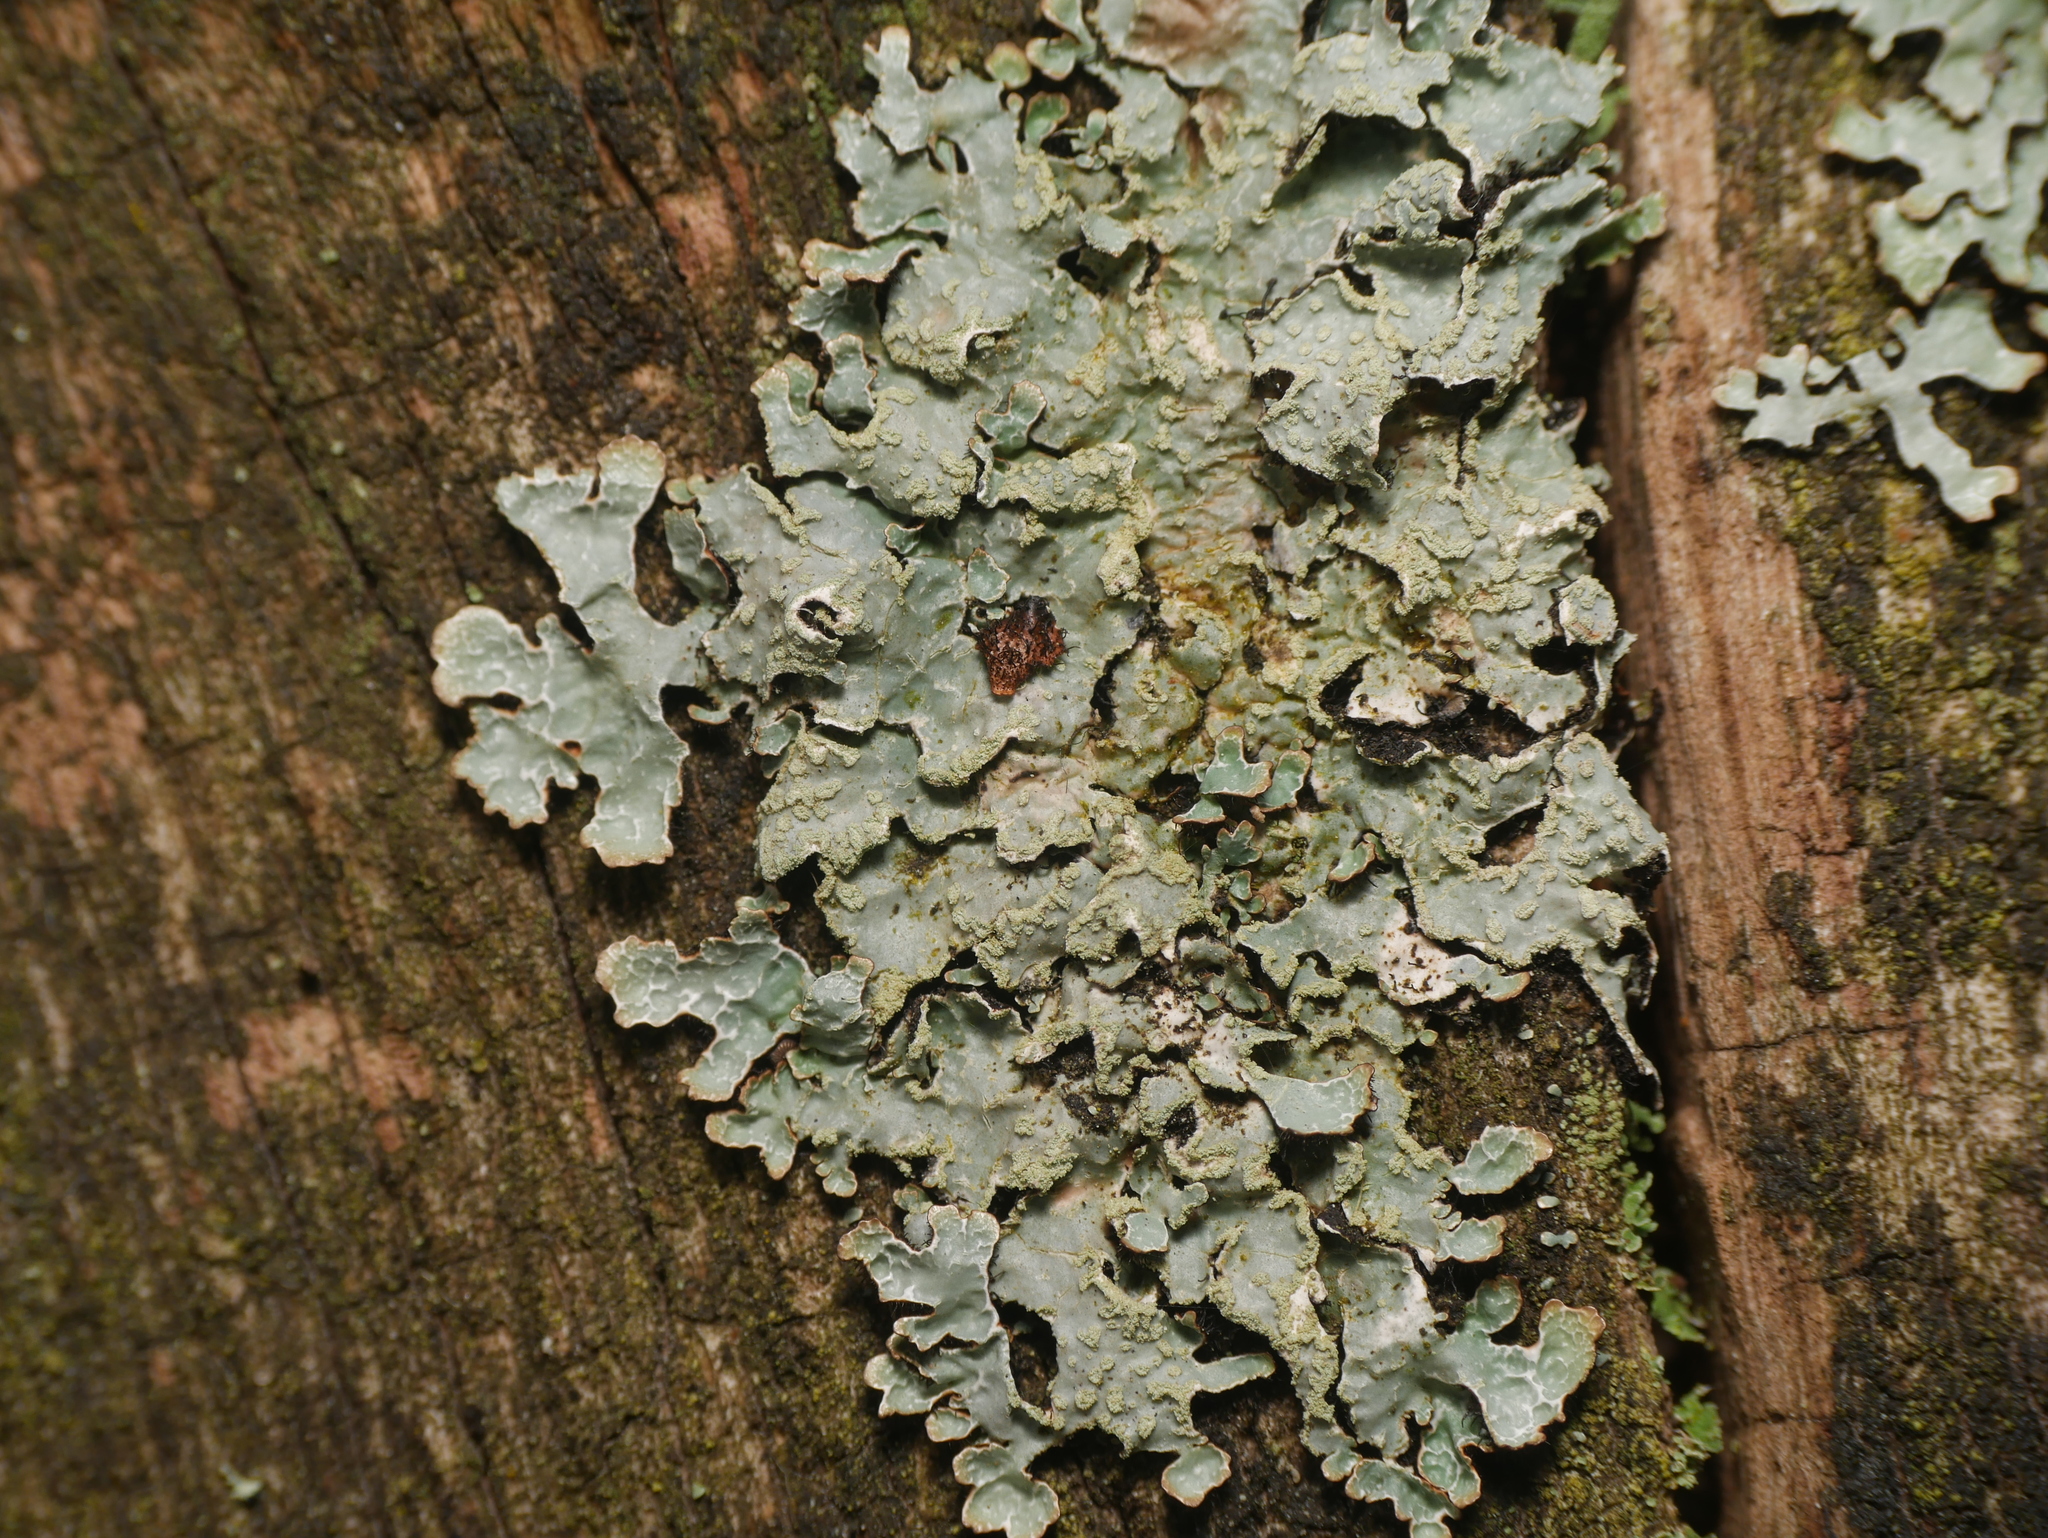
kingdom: Fungi
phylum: Ascomycota
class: Lecanoromycetes
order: Lecanorales
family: Parmeliaceae
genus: Parmelia
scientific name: Parmelia sulcata
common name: Netted shield lichen
